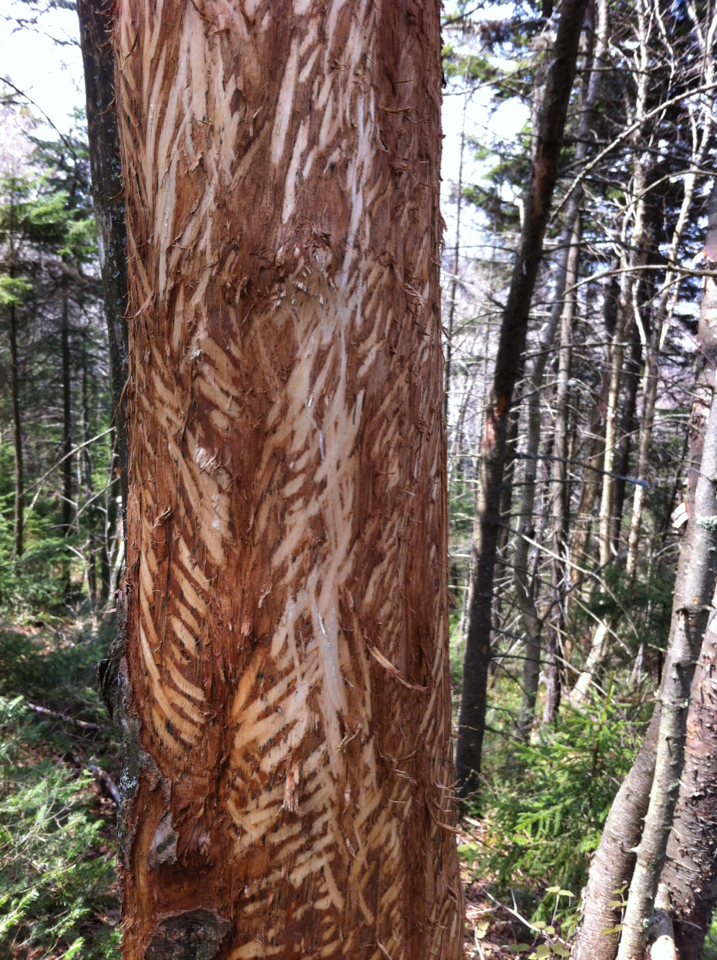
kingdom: Animalia
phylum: Chordata
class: Mammalia
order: Rodentia
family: Erethizontidae
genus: Erethizon
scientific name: Erethizon dorsatus
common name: North american porcupine
